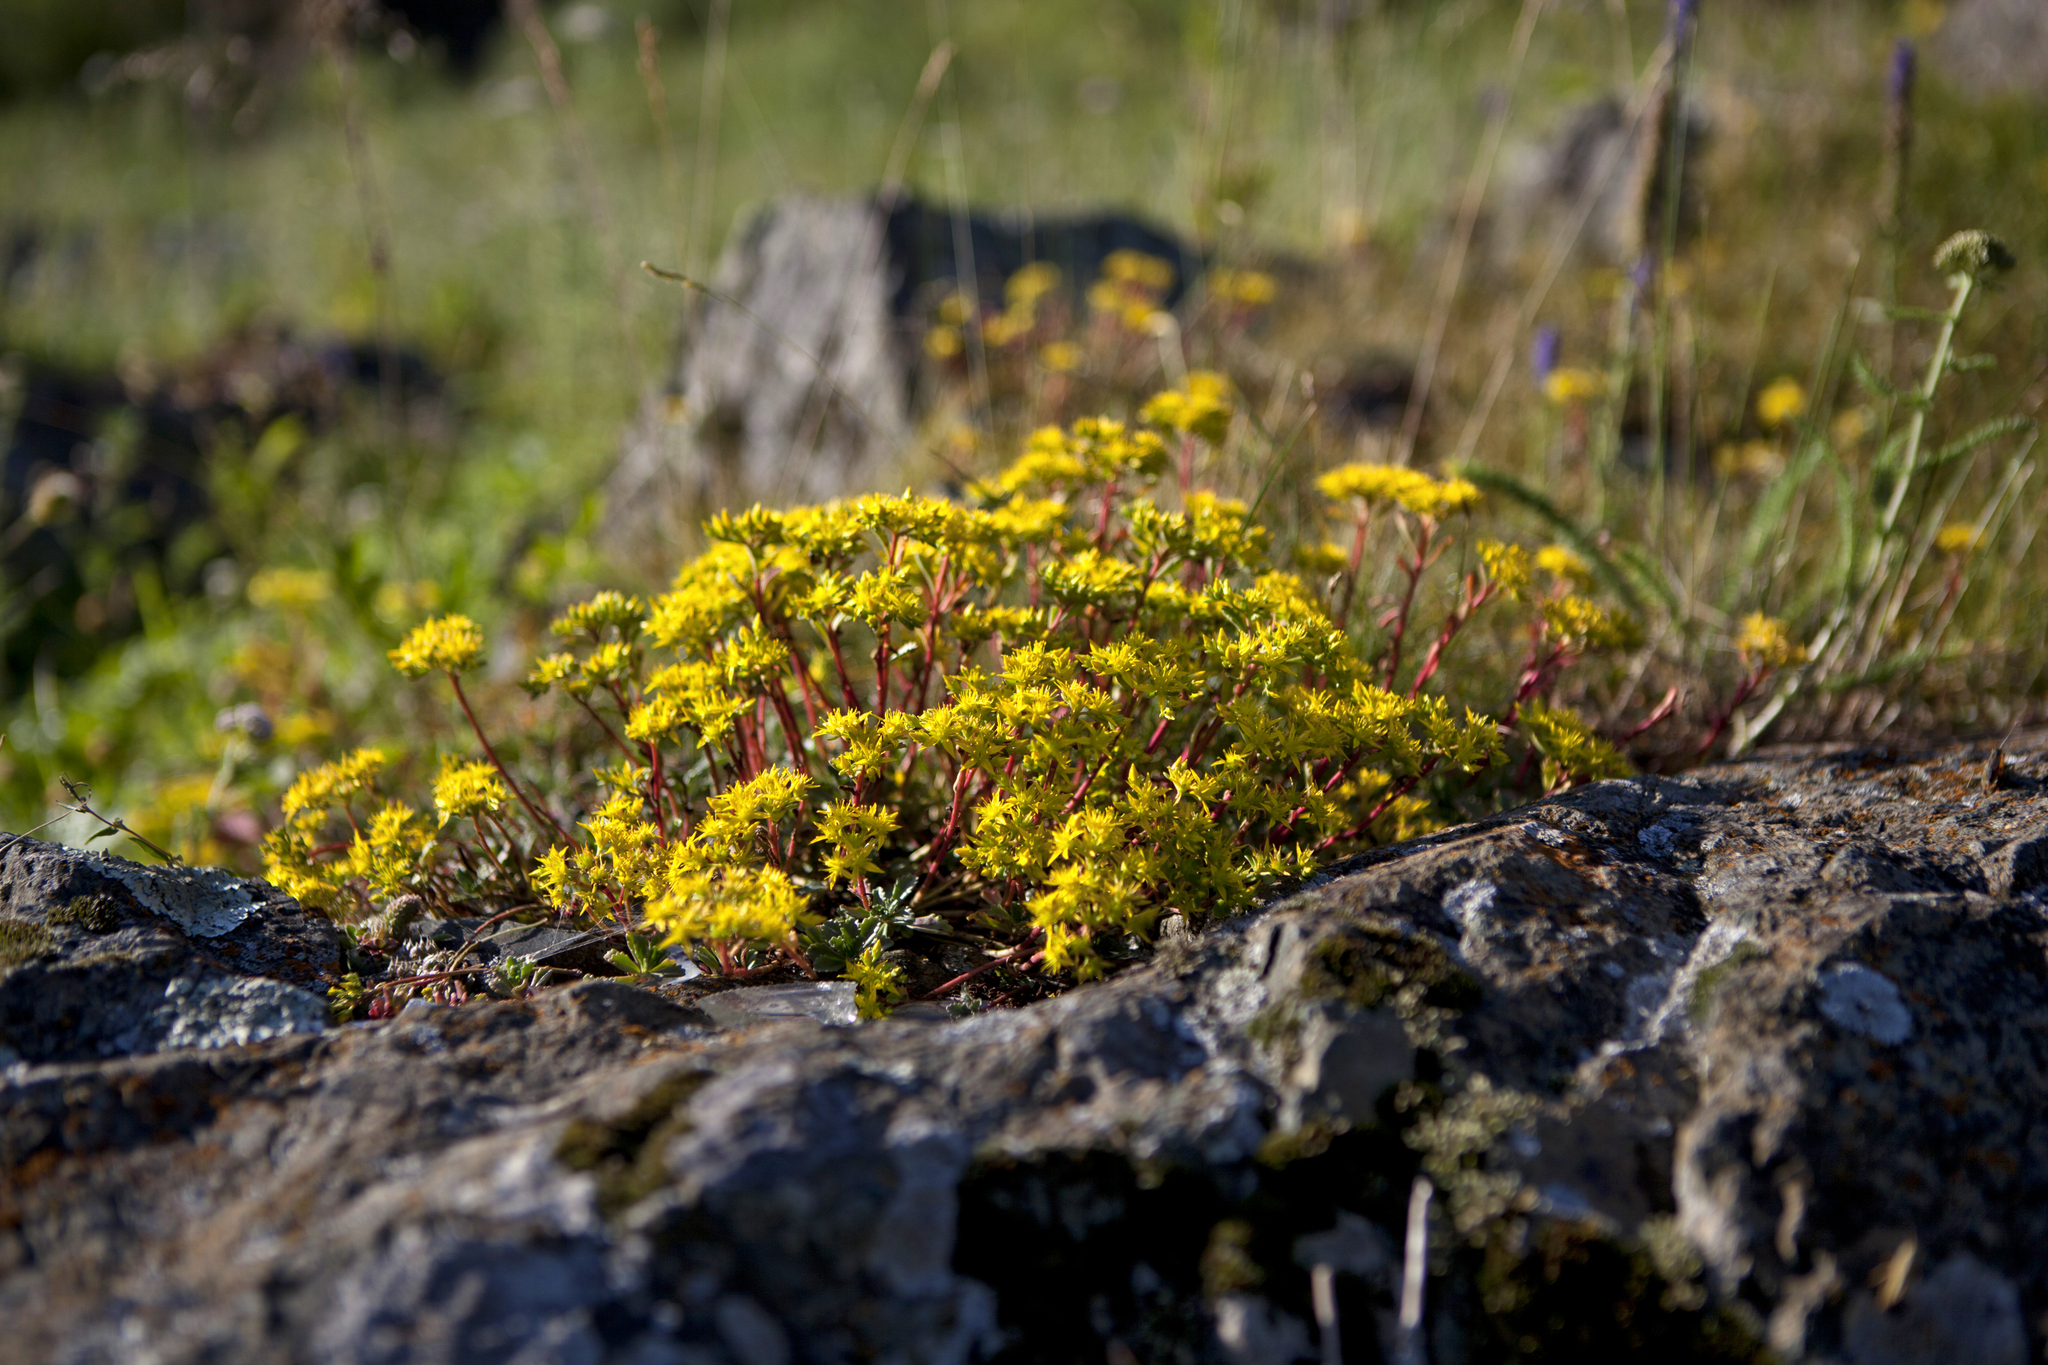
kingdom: Plantae
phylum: Tracheophyta
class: Magnoliopsida
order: Saxifragales
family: Crassulaceae
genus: Phedimus
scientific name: Phedimus hybridus
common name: Hybrid stonecrop
